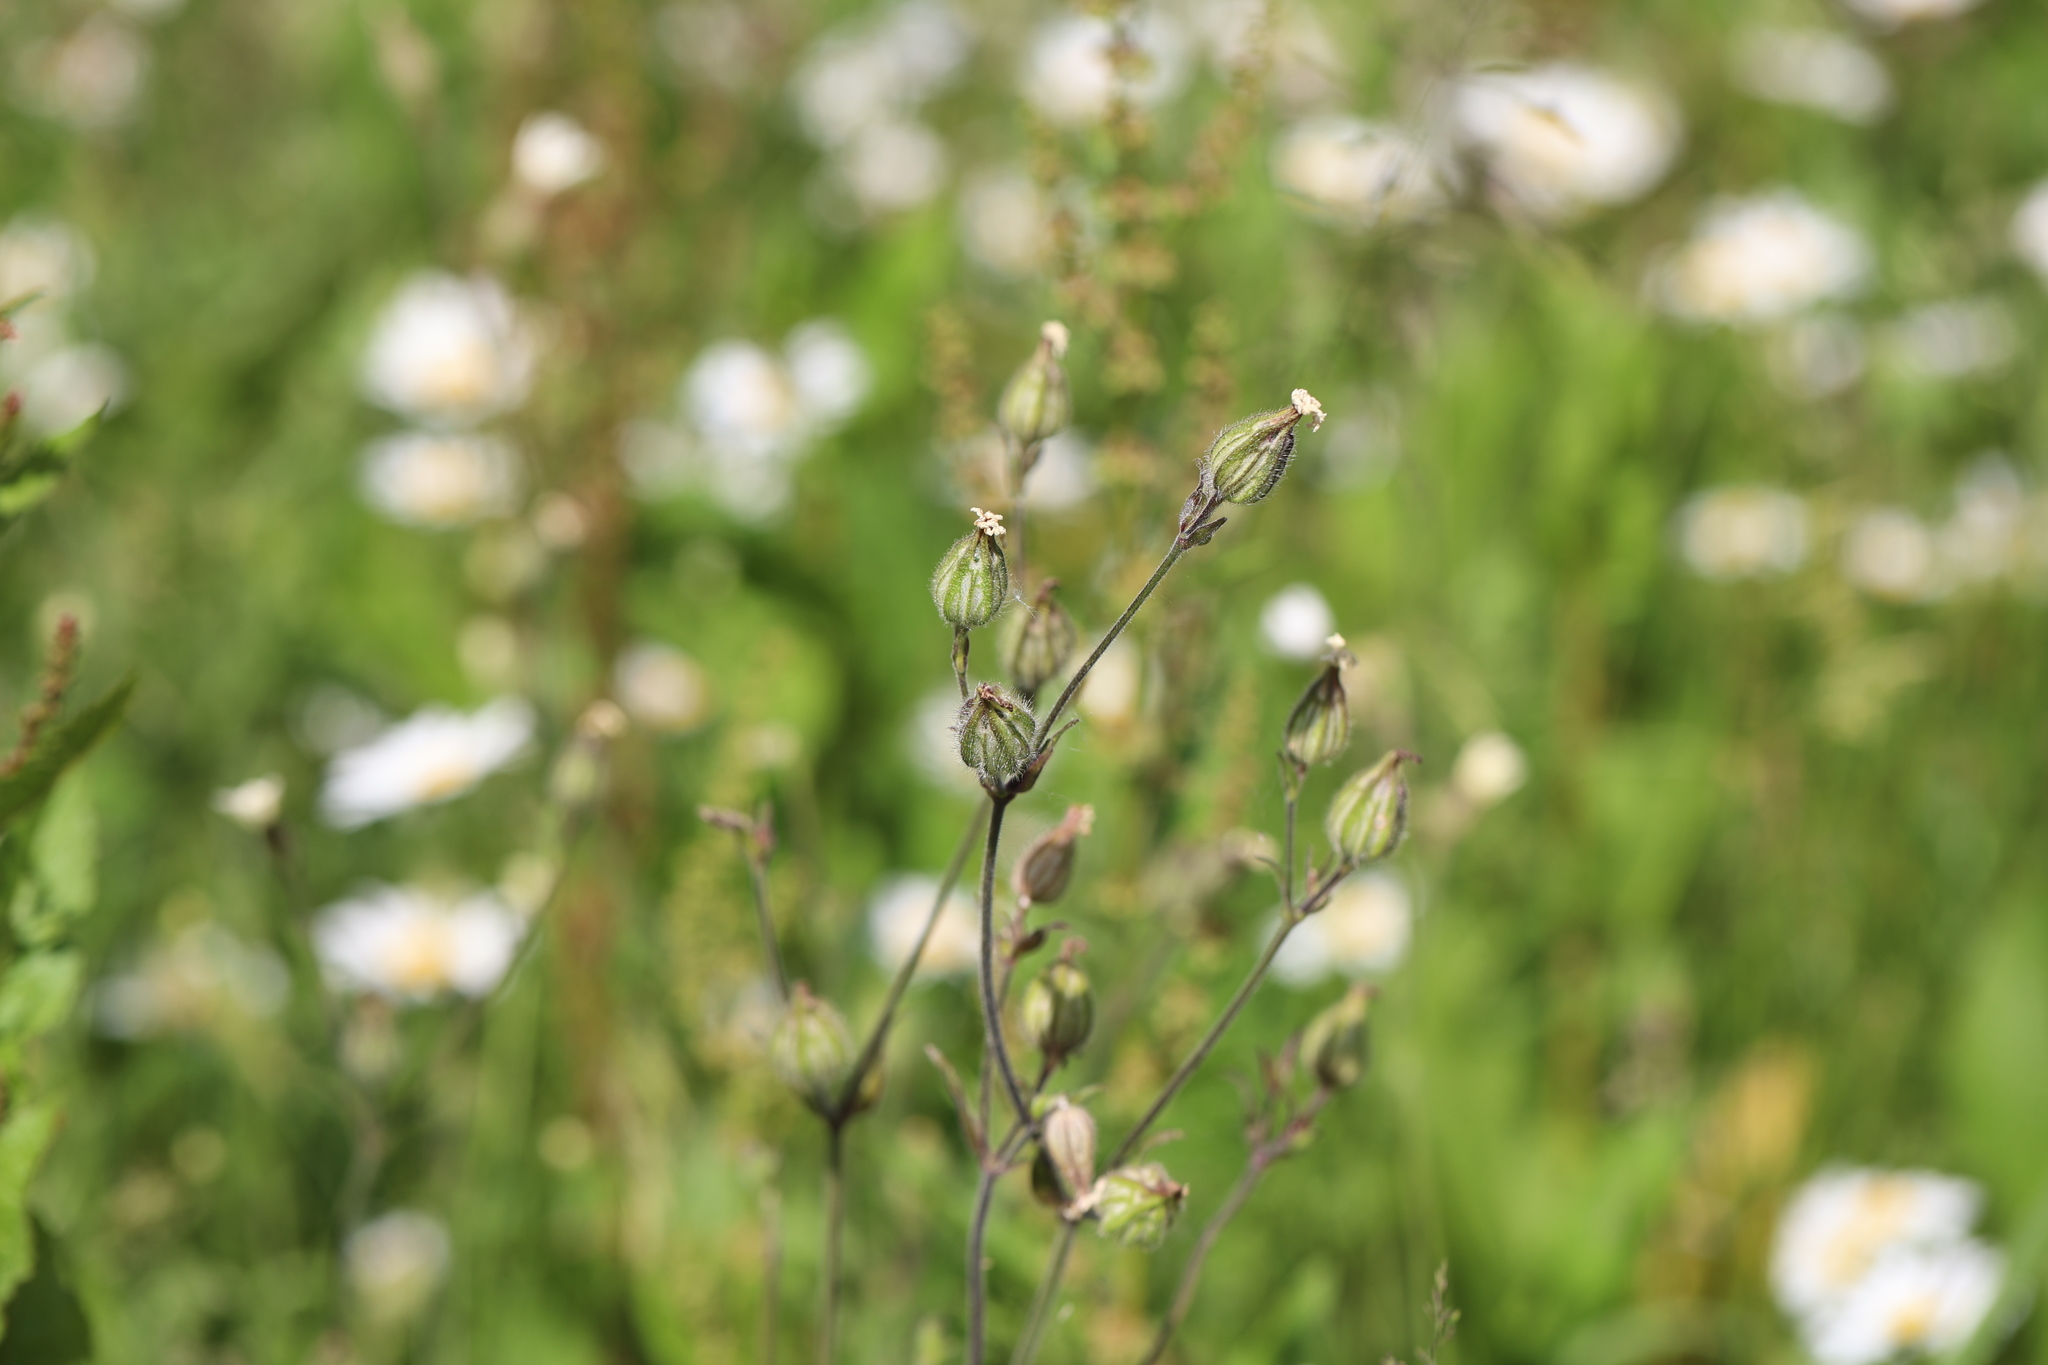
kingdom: Plantae
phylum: Tracheophyta
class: Magnoliopsida
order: Caryophyllales
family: Caryophyllaceae
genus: Silene
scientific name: Silene latifolia
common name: White campion
